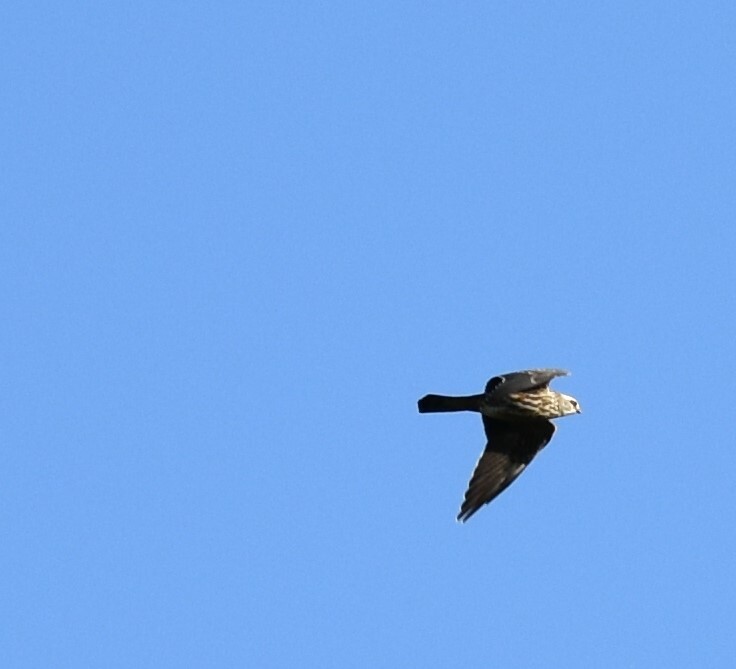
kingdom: Animalia
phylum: Chordata
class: Aves
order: Accipitriformes
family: Accipitridae
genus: Ictinia
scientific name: Ictinia mississippiensis
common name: Mississippi kite
